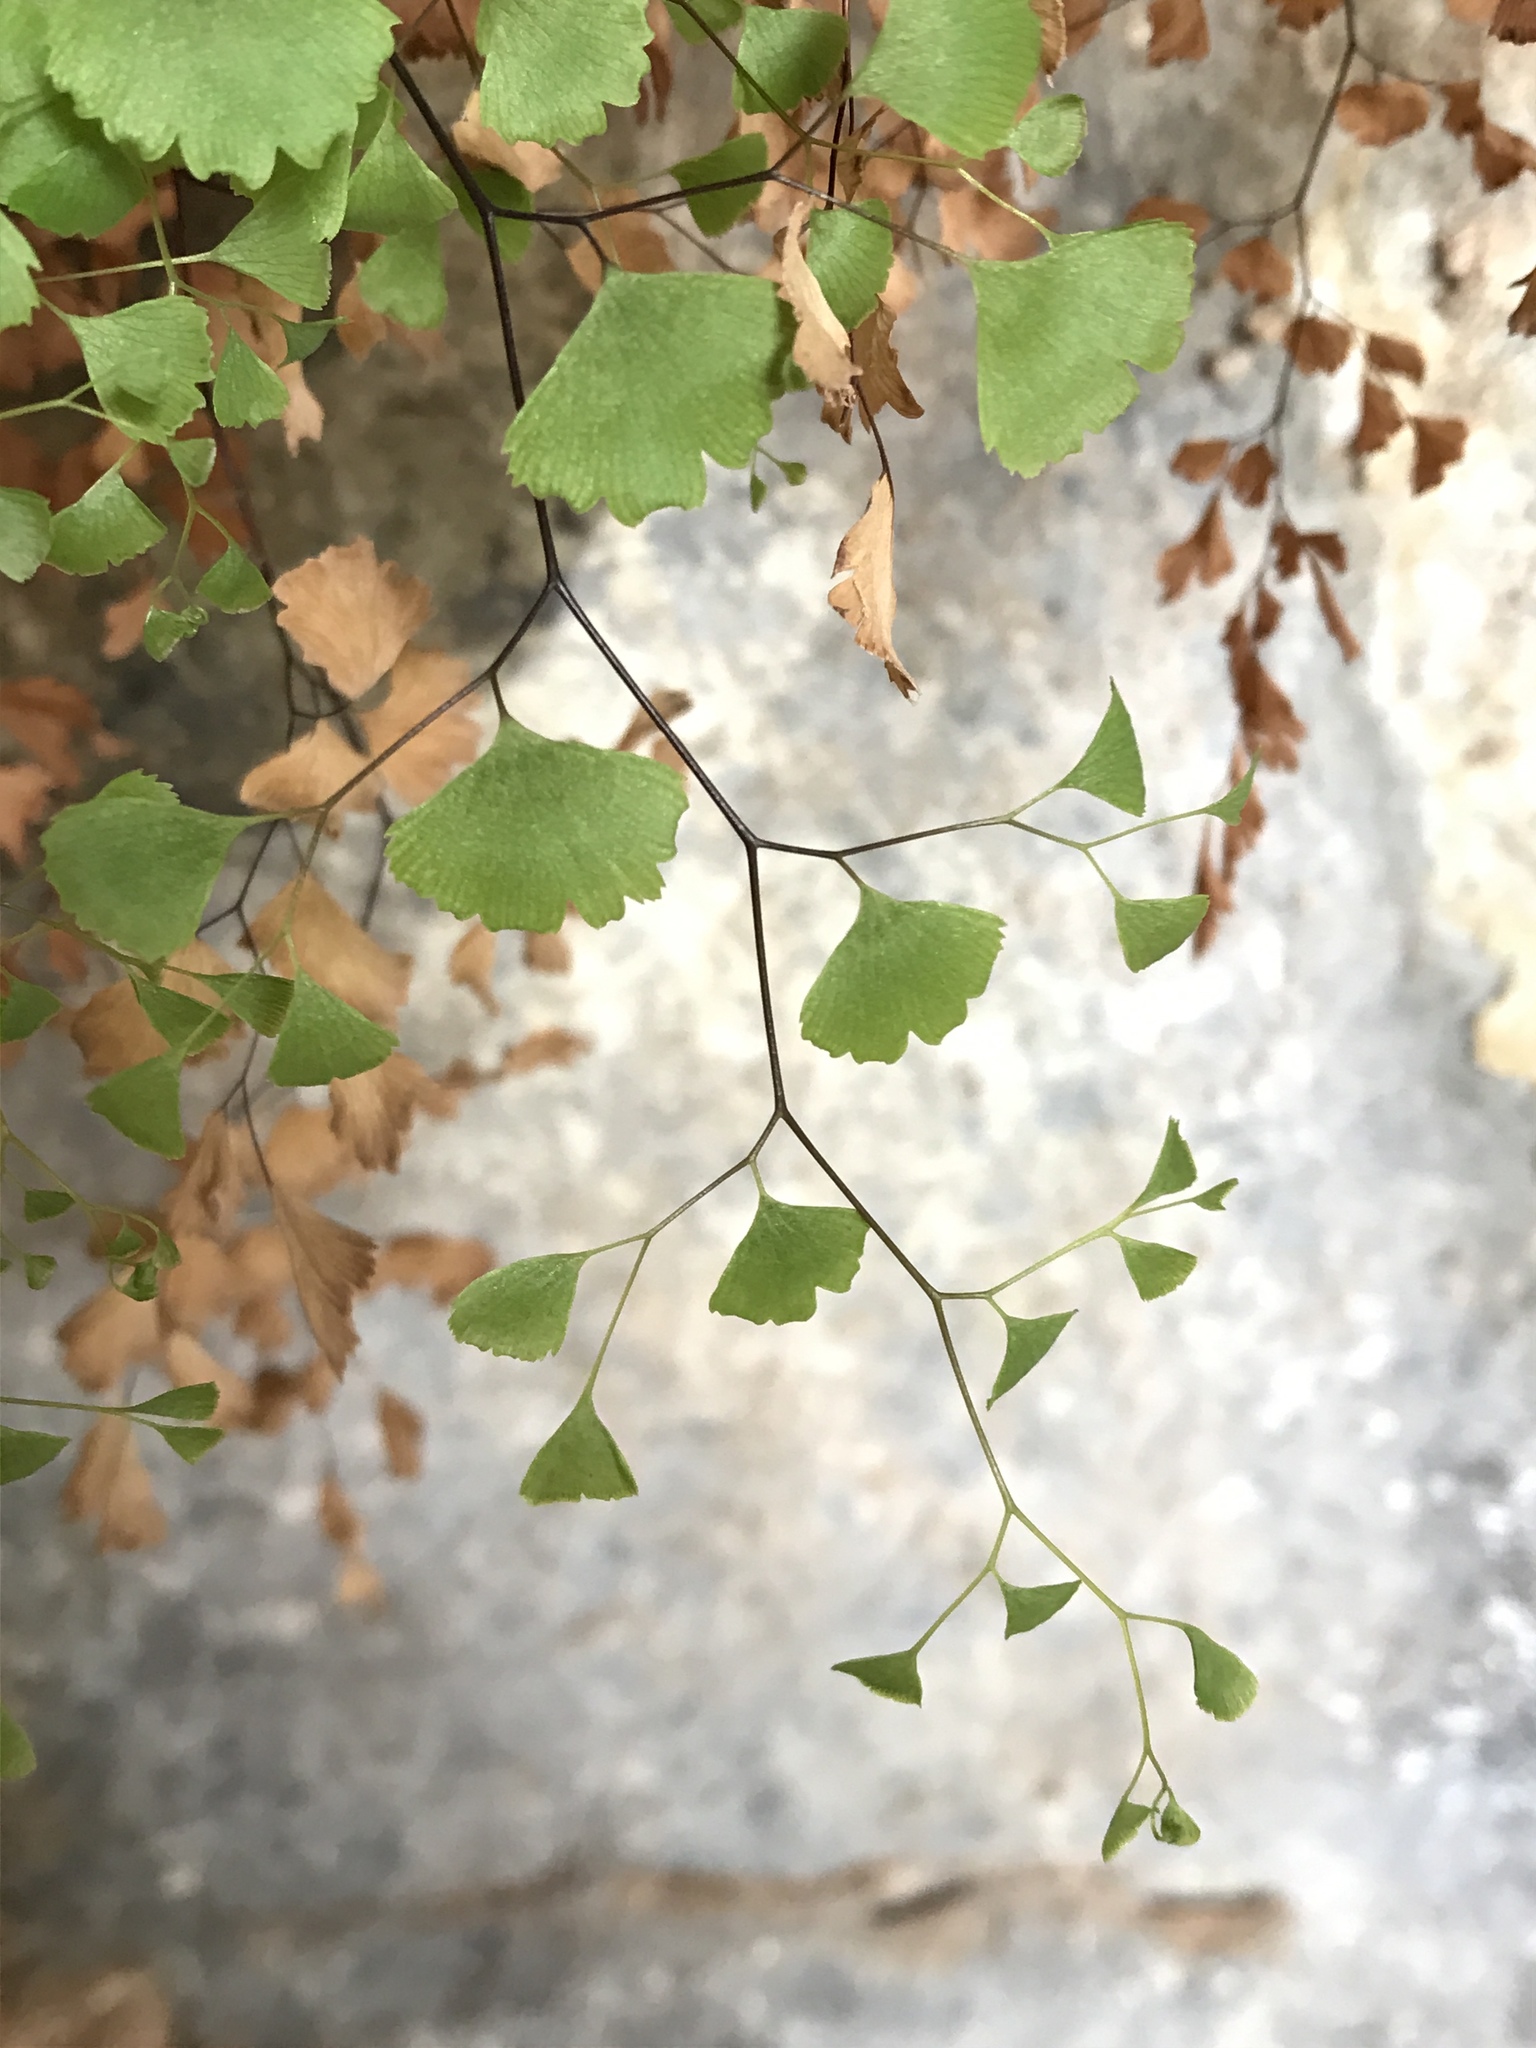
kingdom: Plantae
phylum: Tracheophyta
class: Polypodiopsida
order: Polypodiales
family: Pteridaceae
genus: Adiantum
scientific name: Adiantum capillus-veneris
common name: Maidenhair fern
